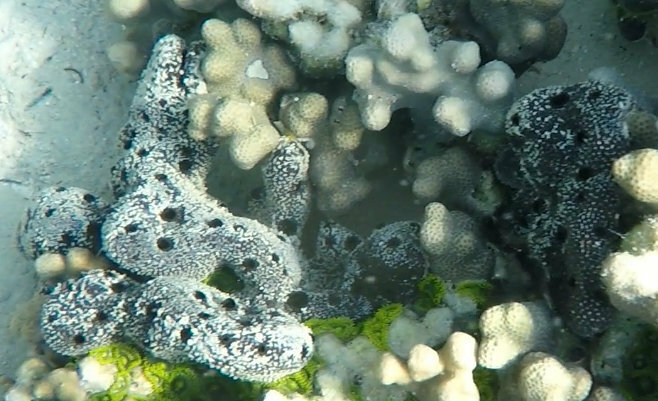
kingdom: Animalia
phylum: Porifera
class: Demospongiae
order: Dictyoceratida
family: Thorectidae
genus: Hyrtios
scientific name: Hyrtios erectus
